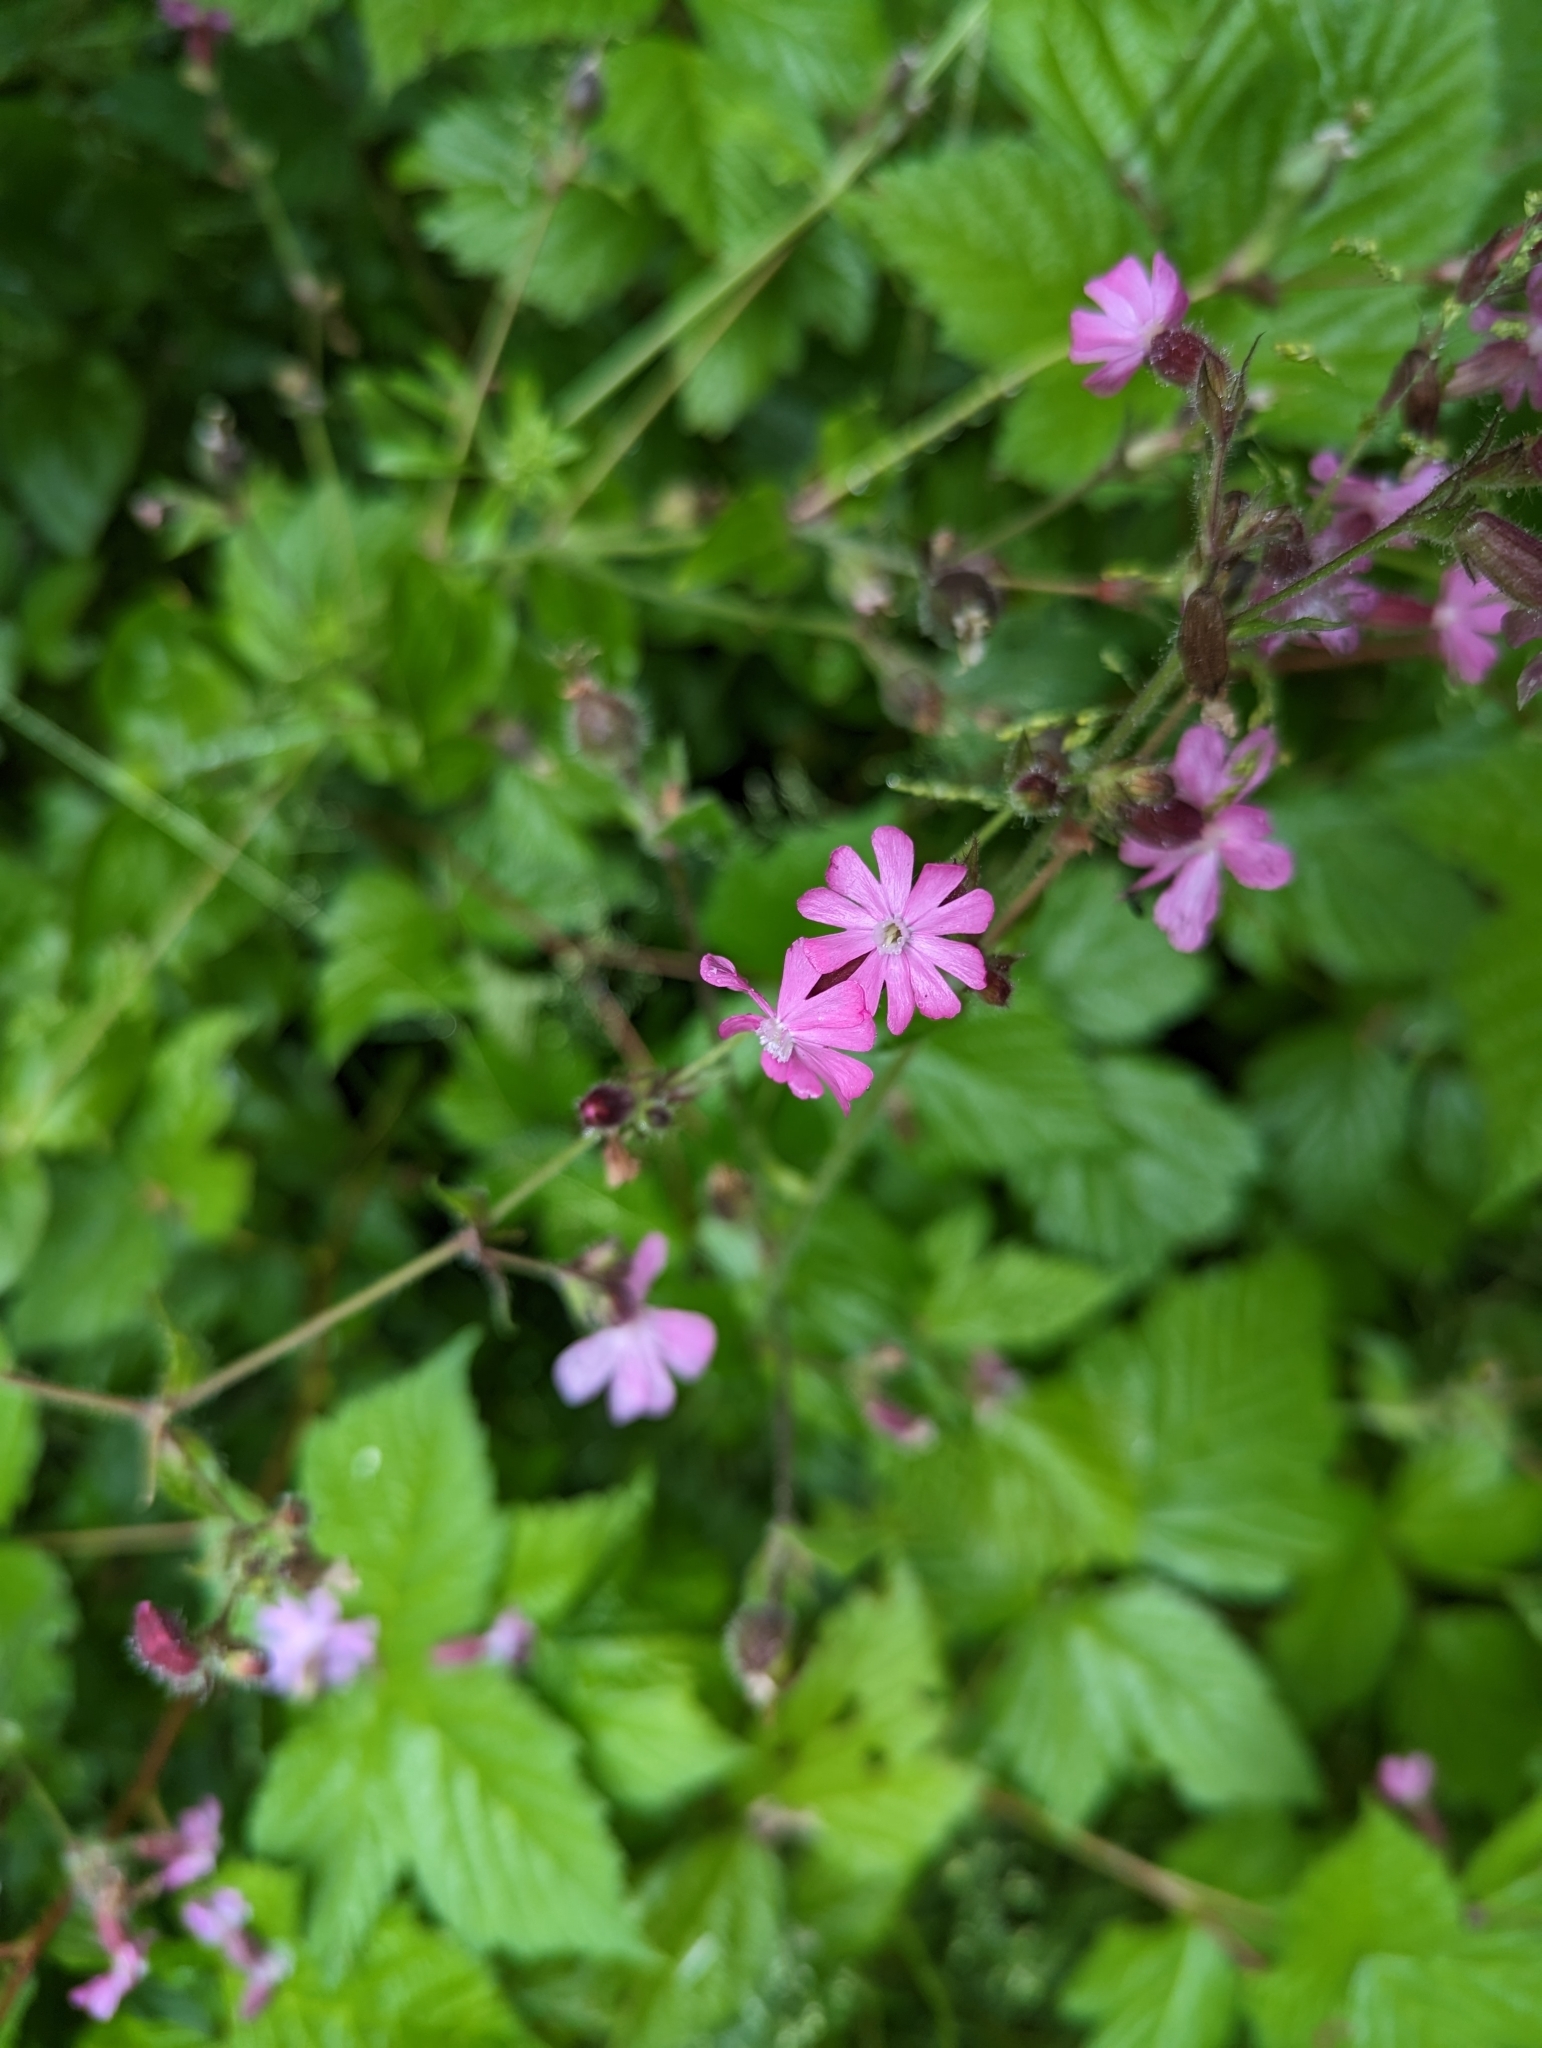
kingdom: Plantae
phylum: Tracheophyta
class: Magnoliopsida
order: Caryophyllales
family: Caryophyllaceae
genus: Silene
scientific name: Silene dioica
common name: Red campion
